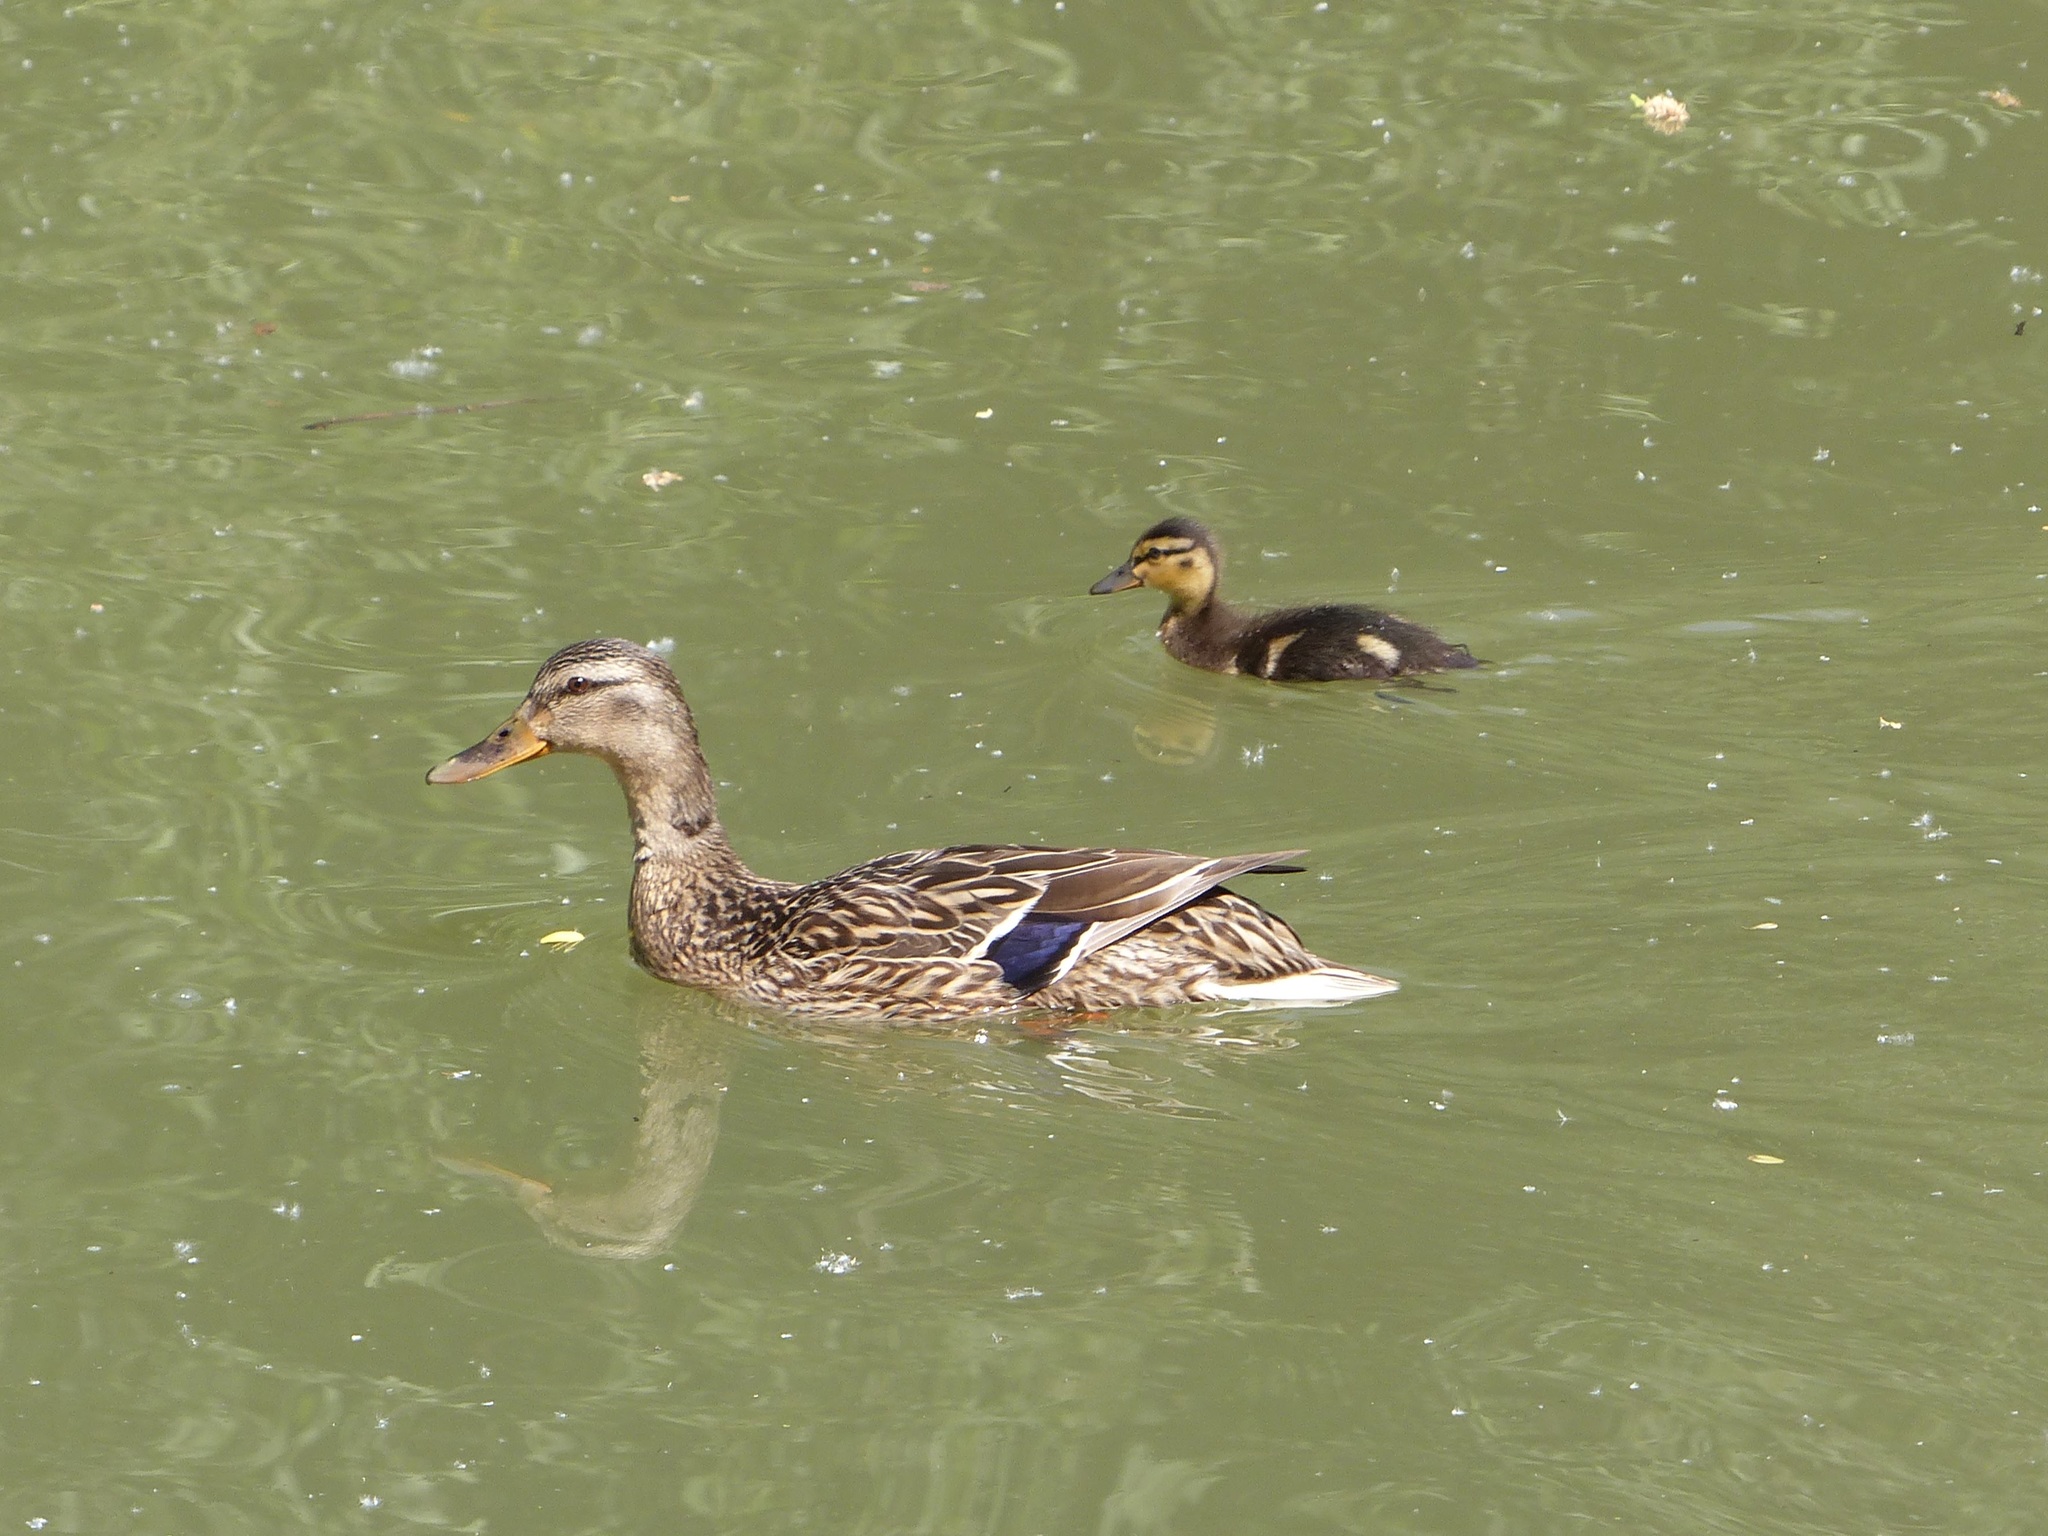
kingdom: Animalia
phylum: Chordata
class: Aves
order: Anseriformes
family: Anatidae
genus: Anas
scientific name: Anas platyrhynchos
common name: Mallard
